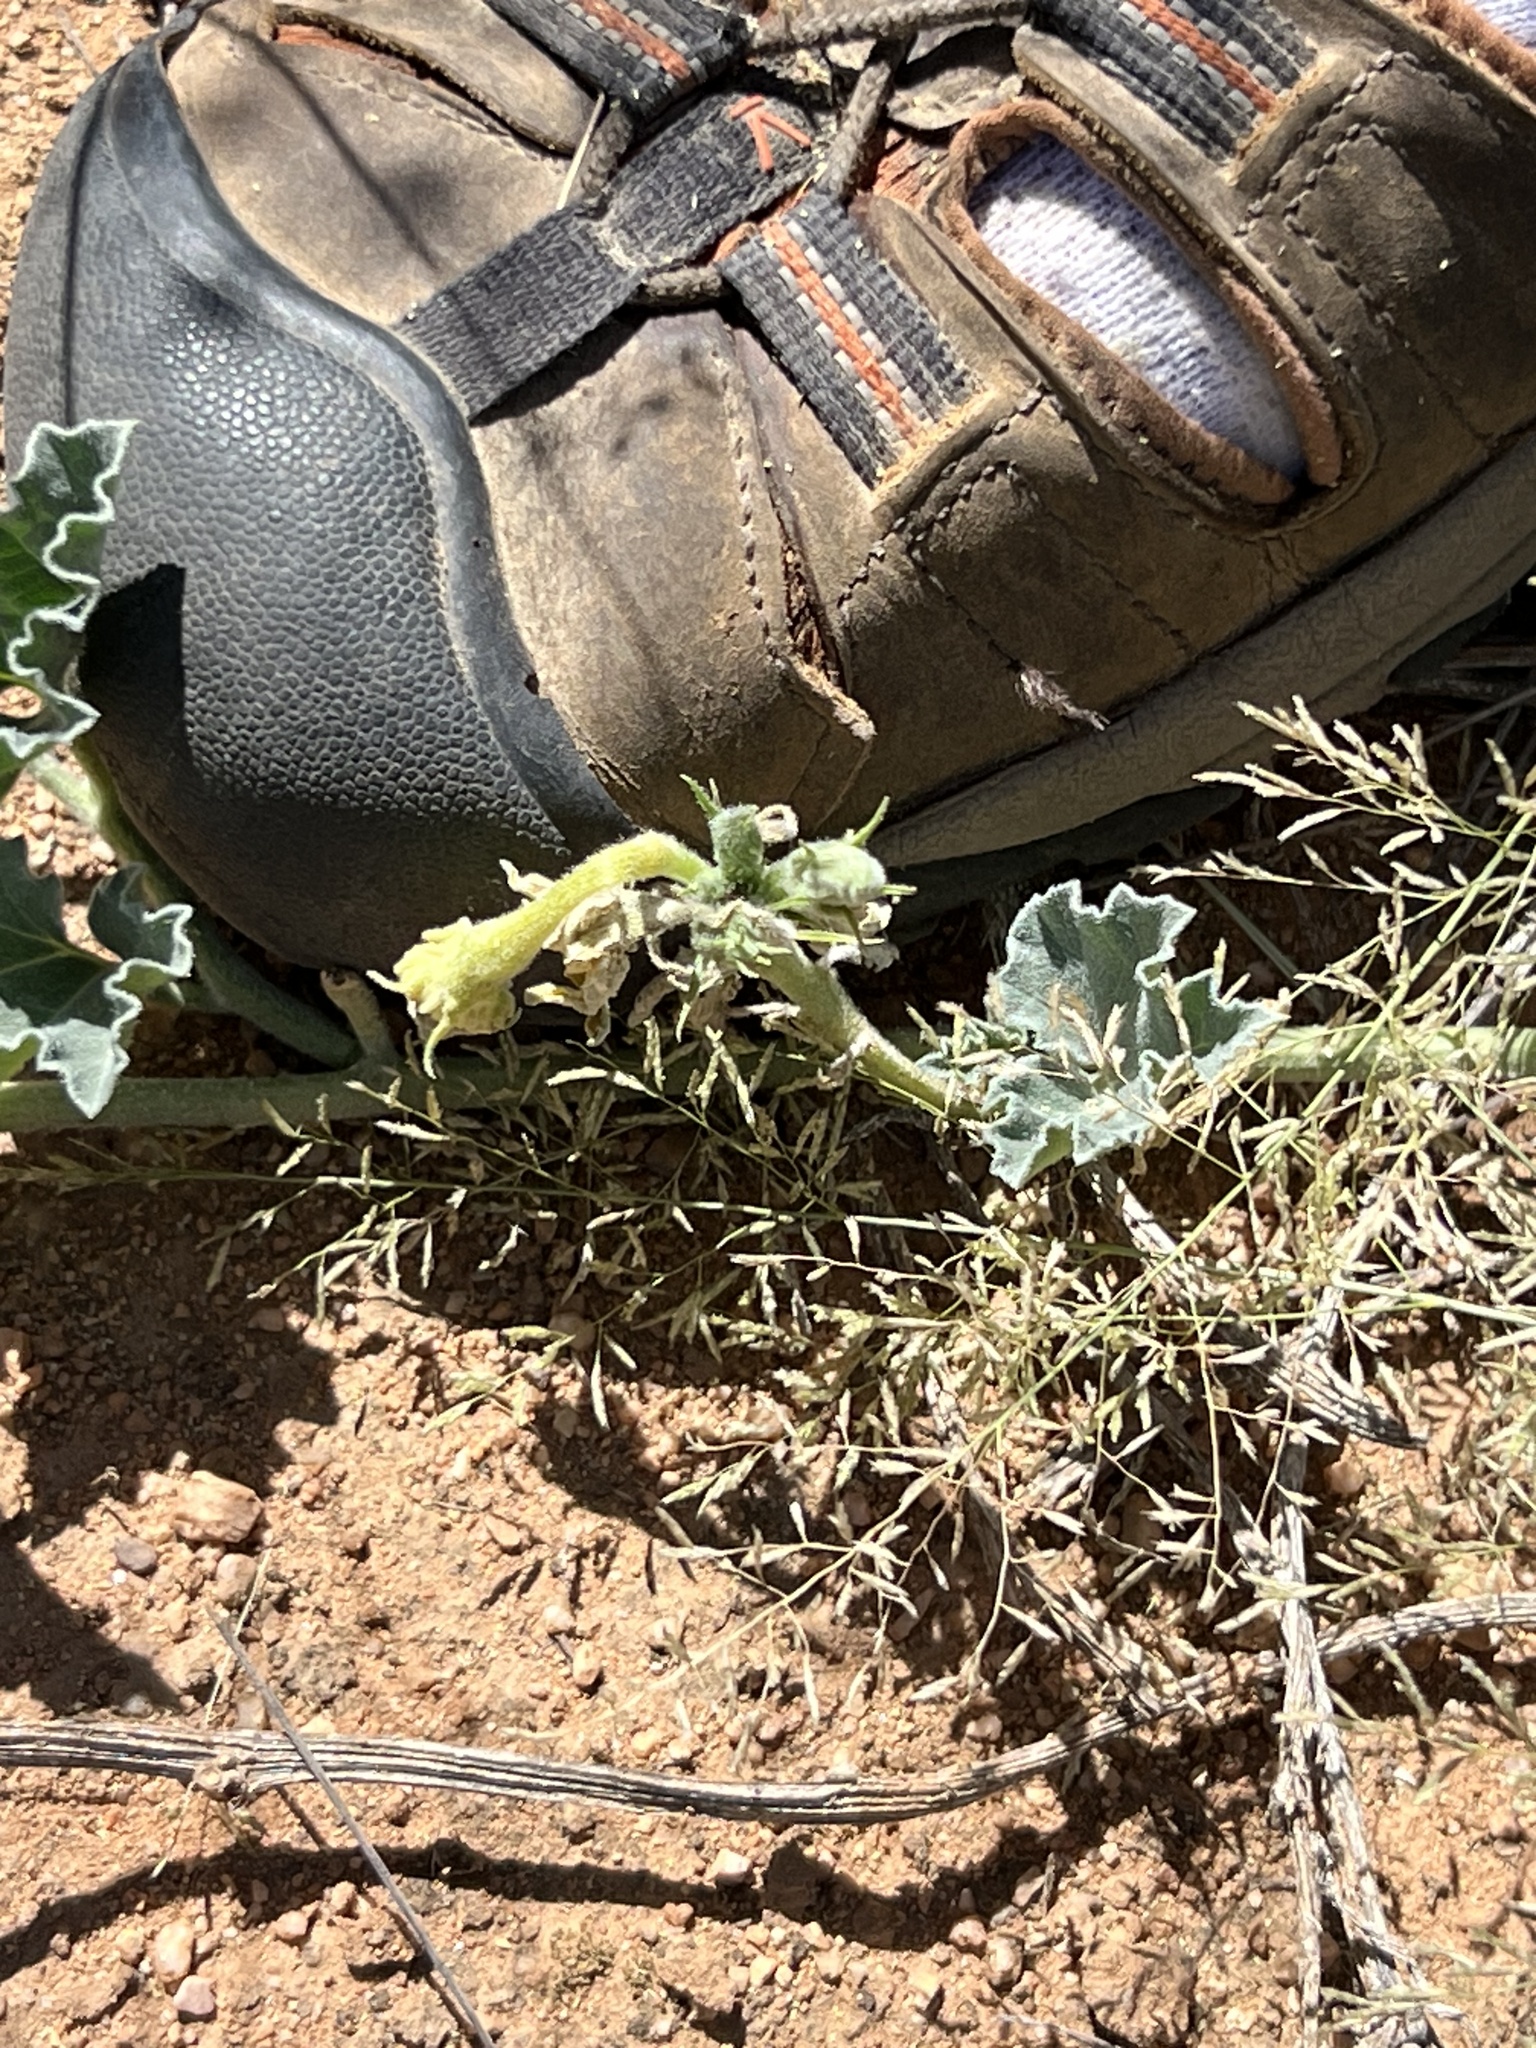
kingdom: Plantae
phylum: Tracheophyta
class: Magnoliopsida
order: Cucurbitales
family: Cucurbitaceae
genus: Apodanthera
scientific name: Apodanthera undulata
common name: Melon-loco
